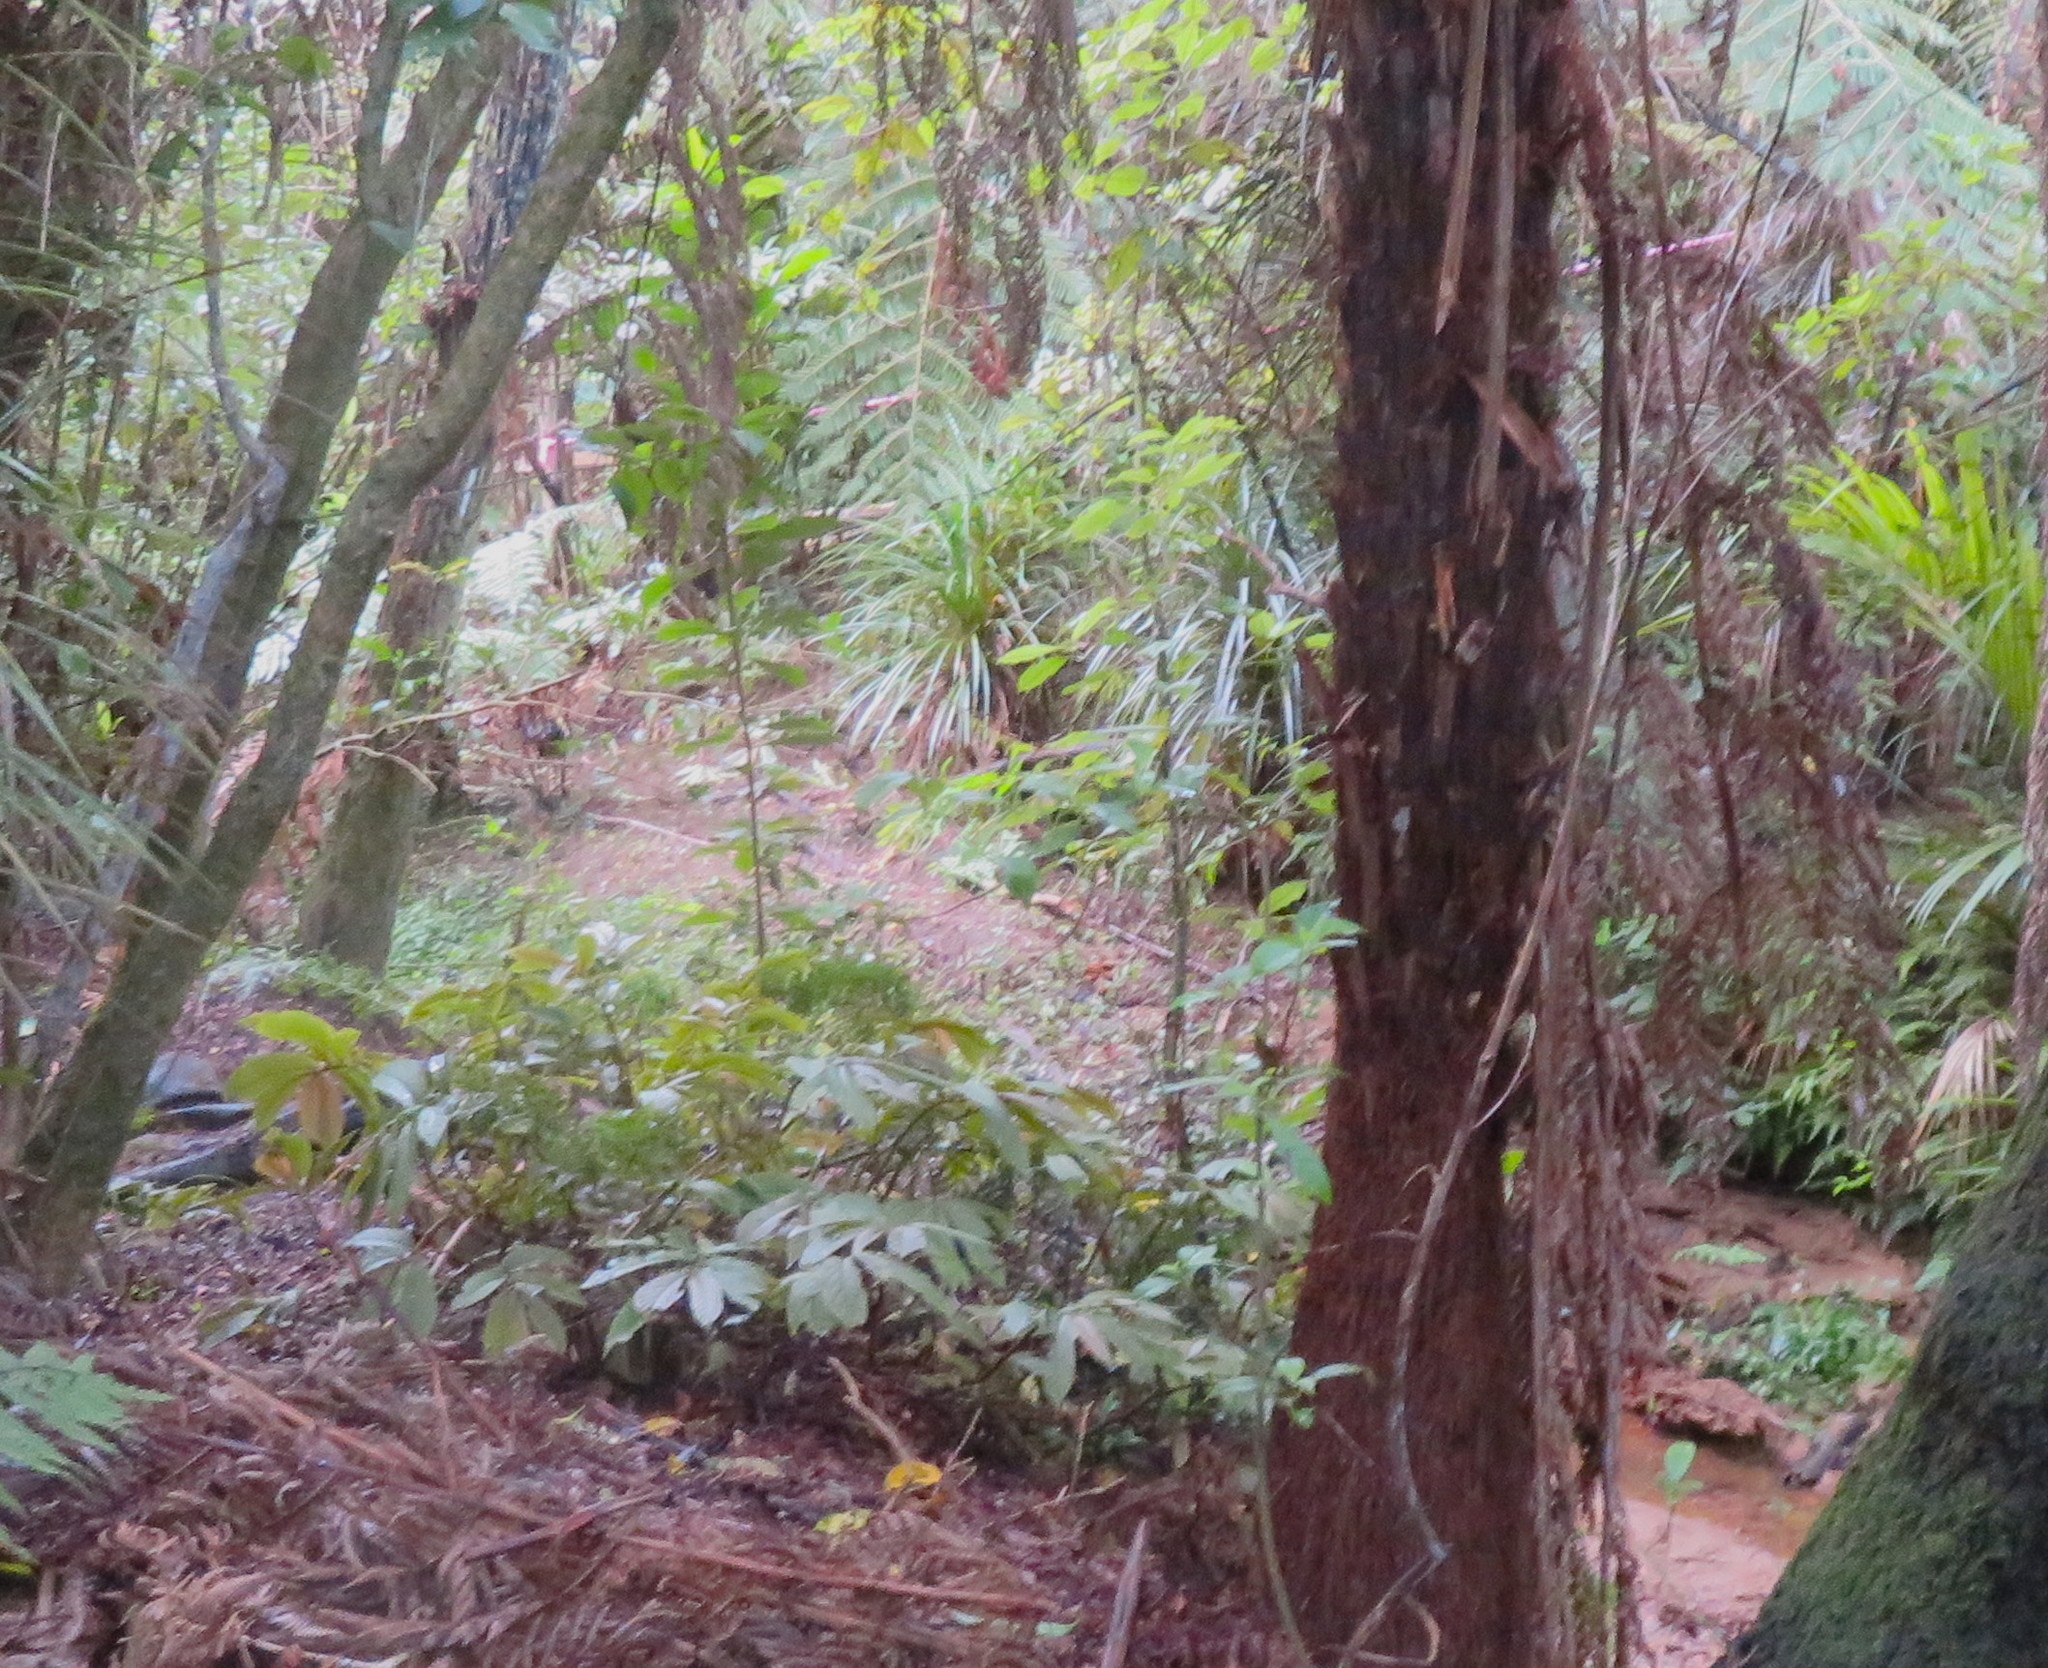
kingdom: Plantae
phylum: Tracheophyta
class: Magnoliopsida
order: Rosales
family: Urticaceae
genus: Elatostema
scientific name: Elatostema rugosum
